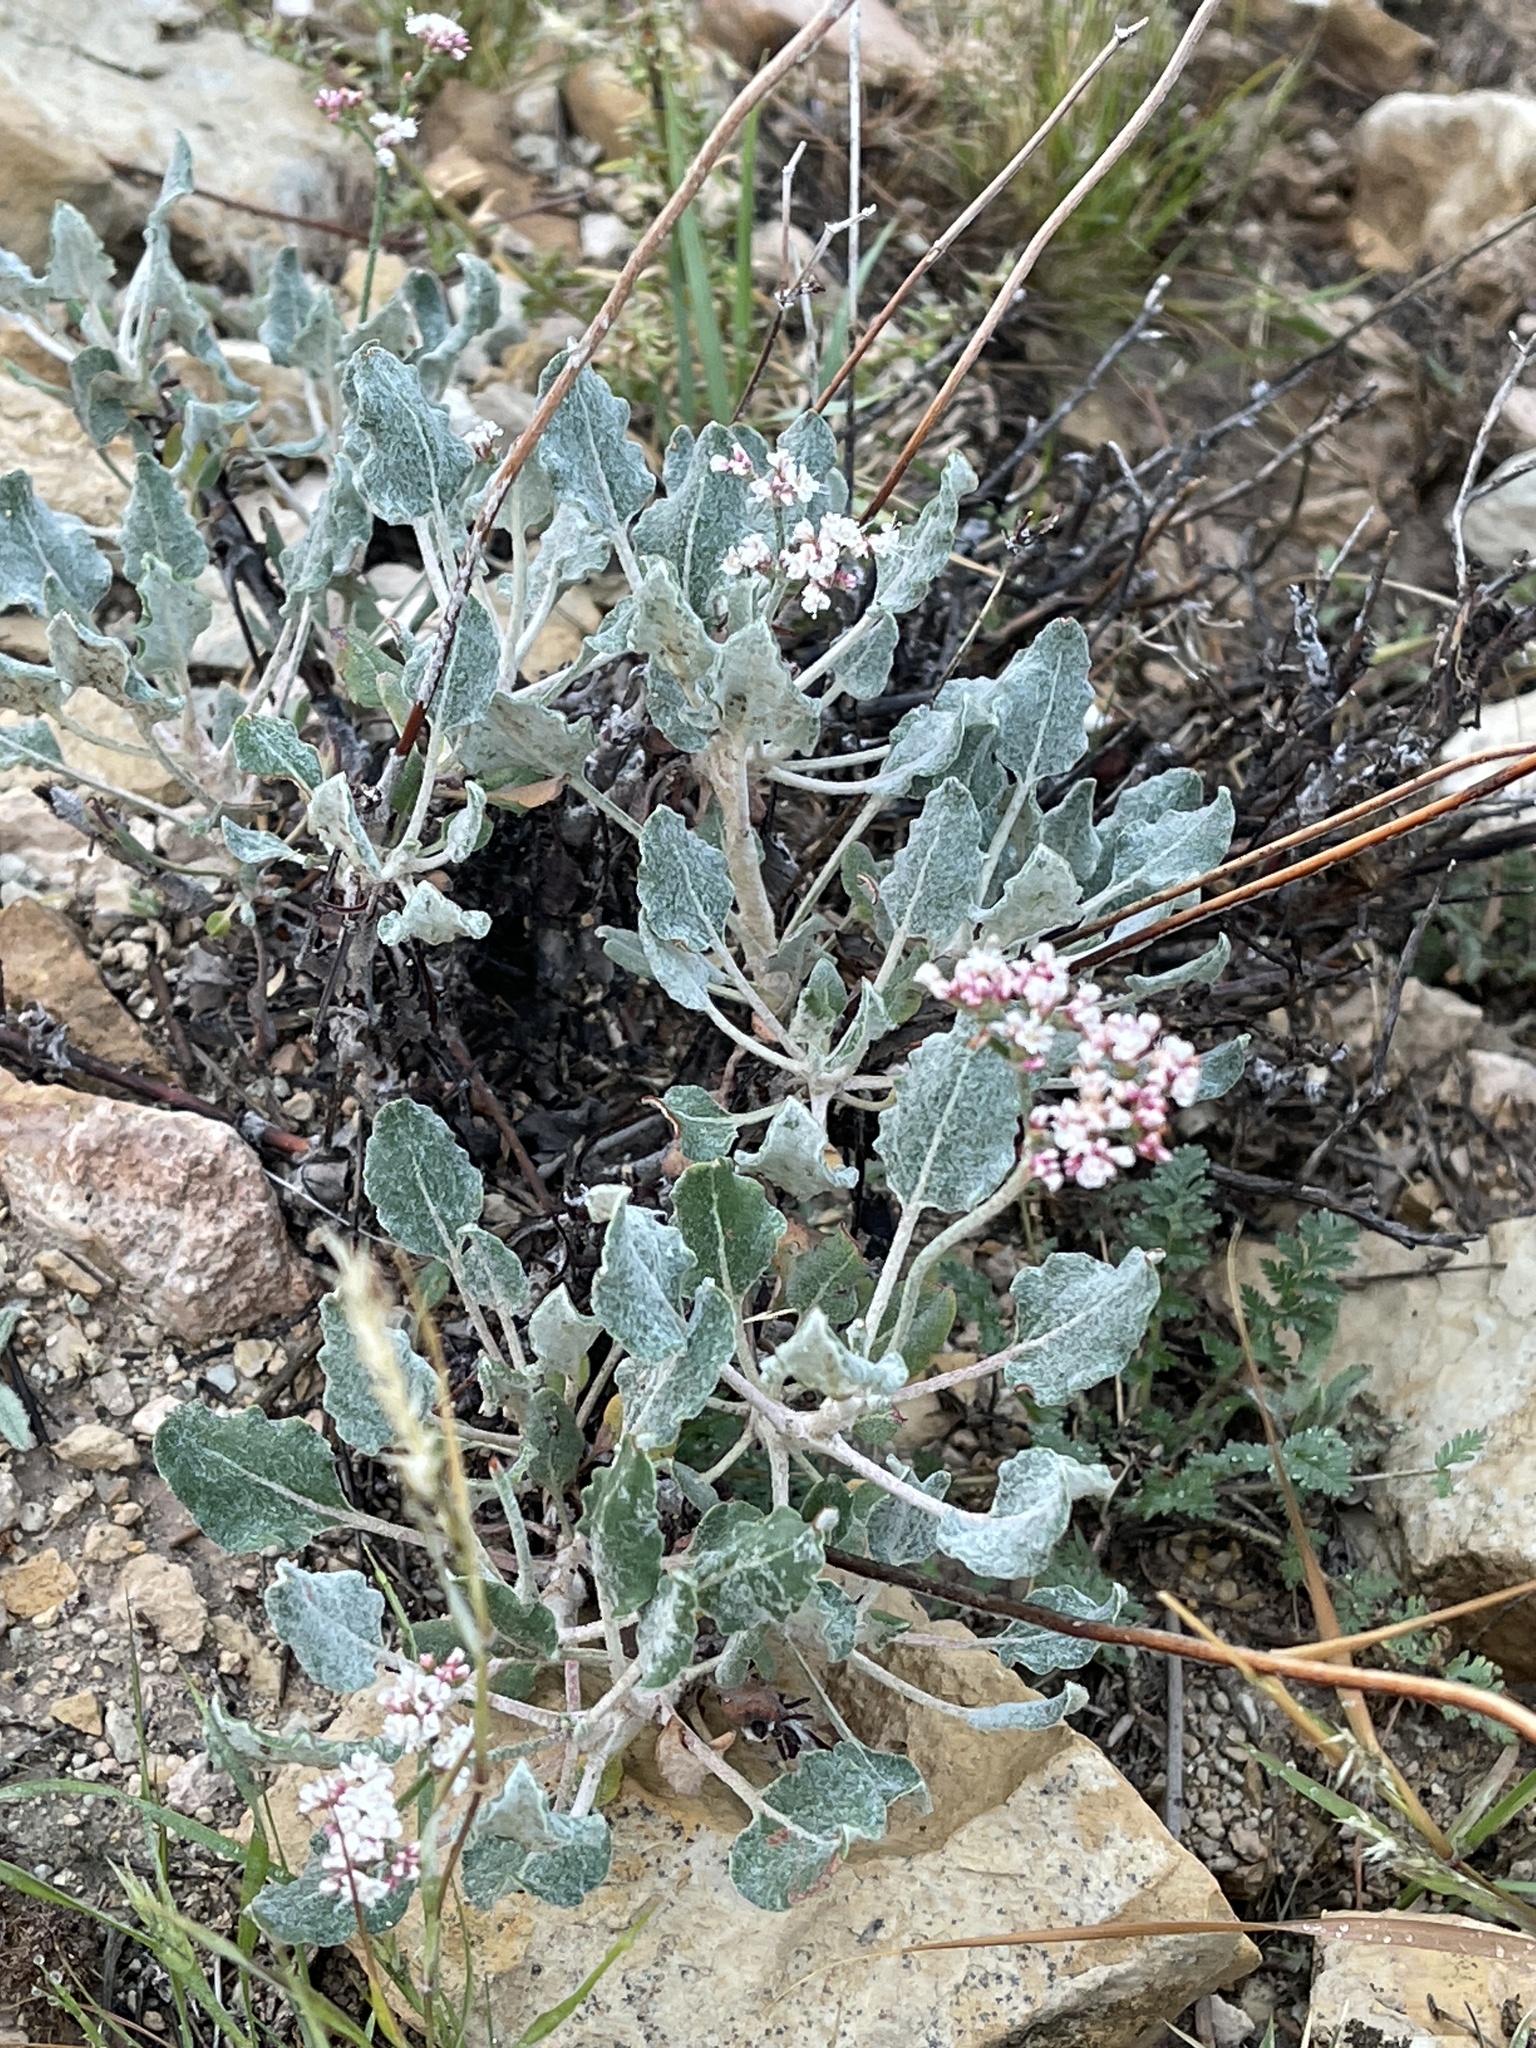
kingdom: Plantae
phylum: Tracheophyta
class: Magnoliopsida
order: Caryophyllales
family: Polygonaceae
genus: Eriogonum
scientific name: Eriogonum corymbosum
